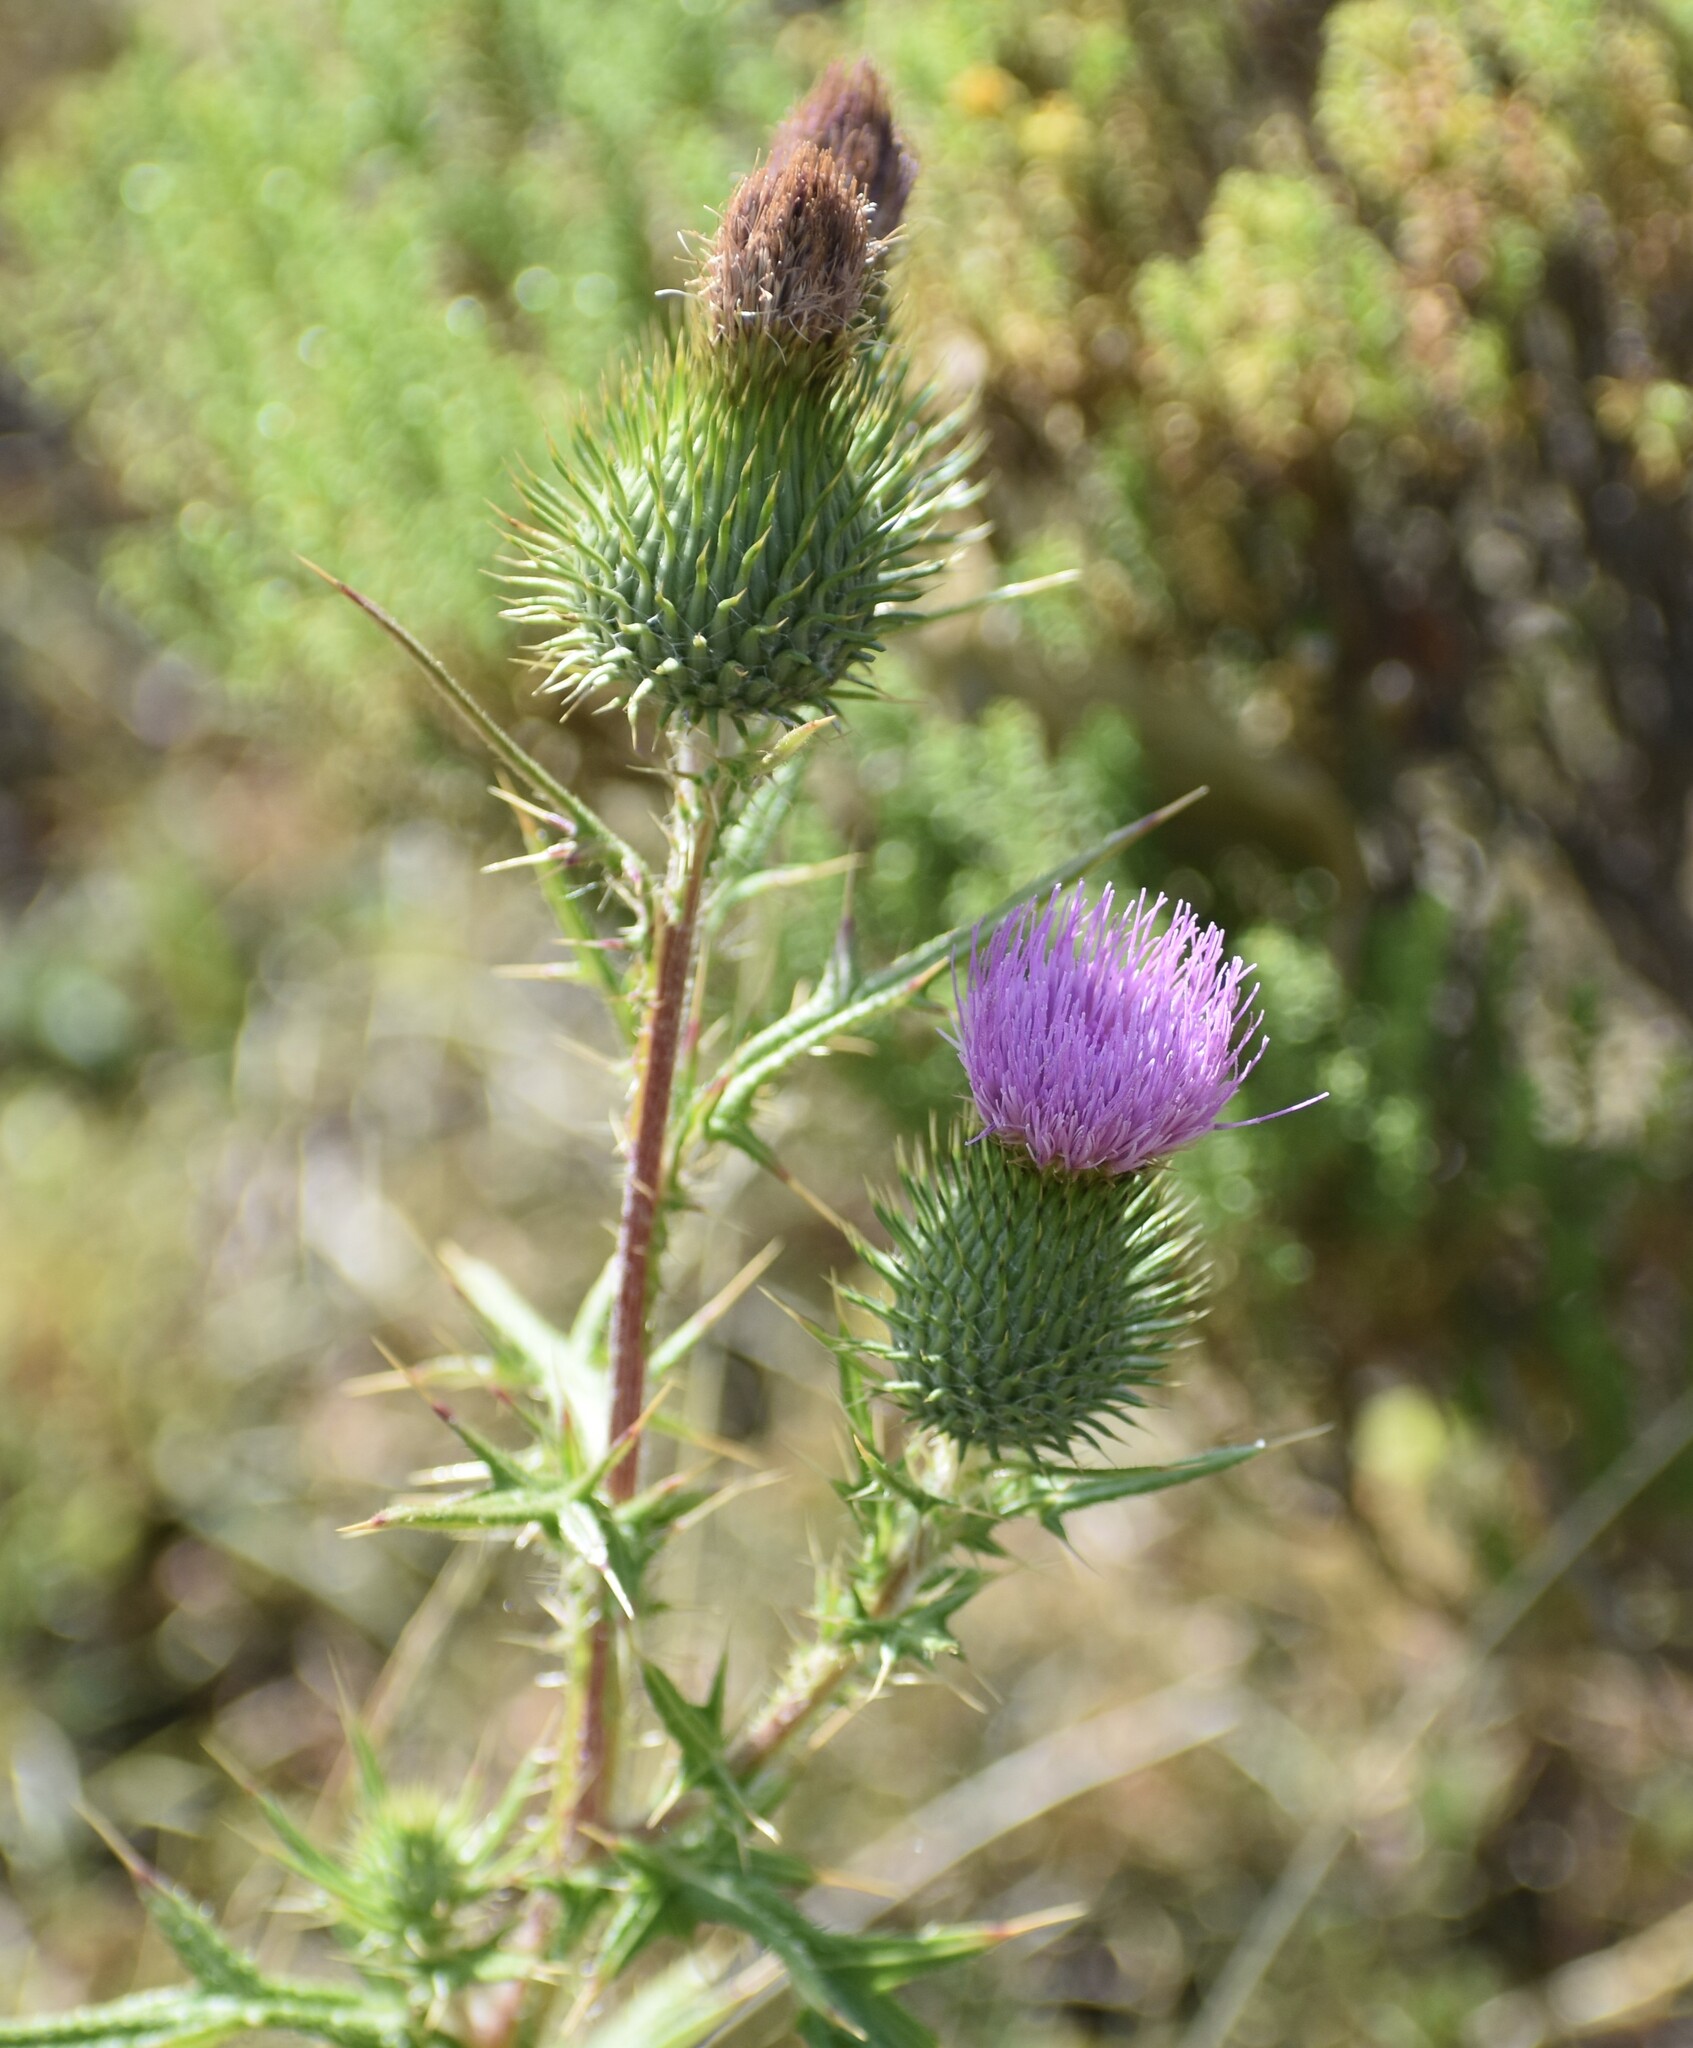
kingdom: Plantae
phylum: Tracheophyta
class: Magnoliopsida
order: Asterales
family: Asteraceae
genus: Cirsium
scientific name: Cirsium vulgare
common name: Bull thistle
